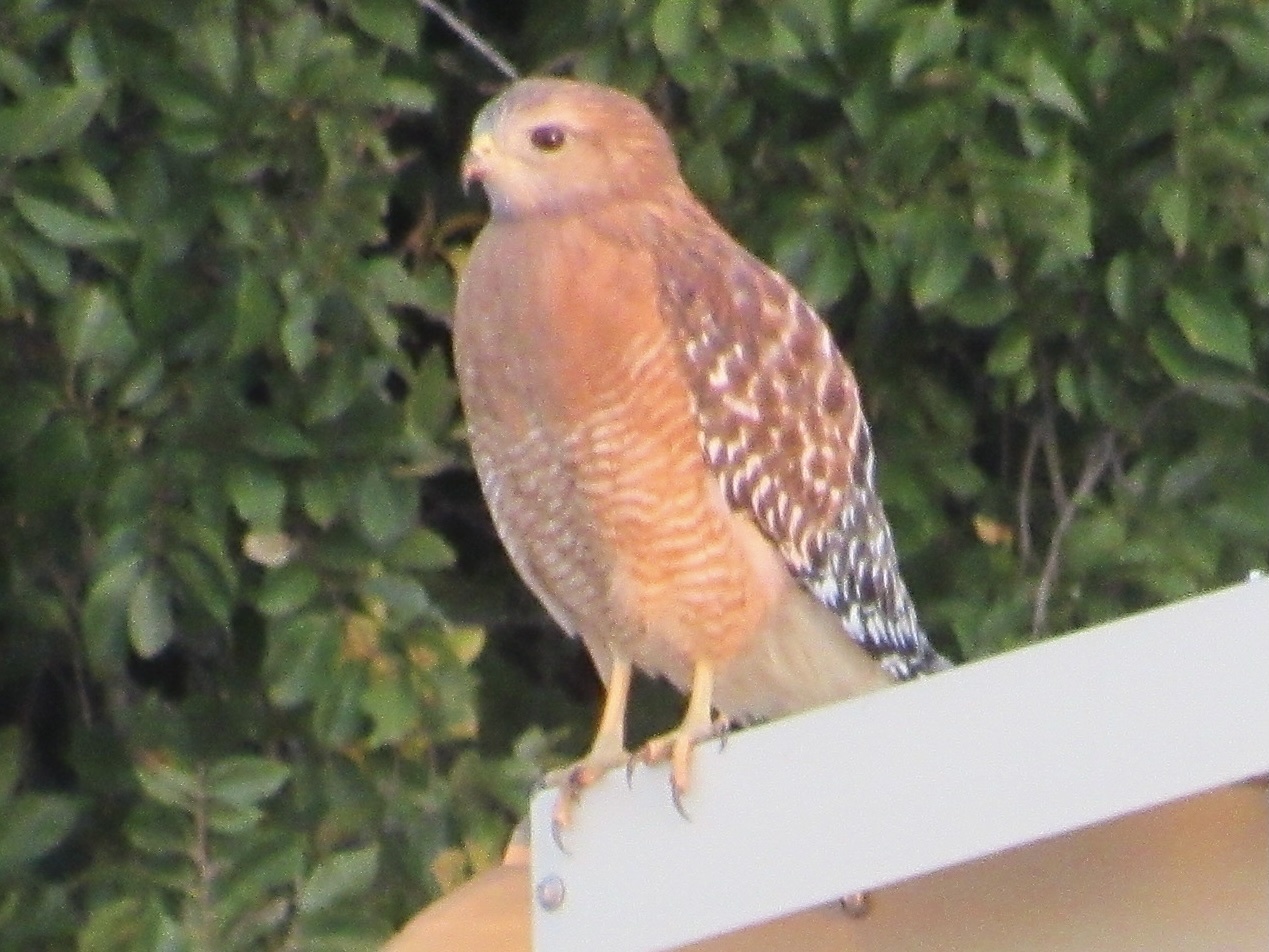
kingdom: Animalia
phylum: Chordata
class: Aves
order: Accipitriformes
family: Accipitridae
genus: Buteo
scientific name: Buteo lineatus
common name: Red-shouldered hawk
